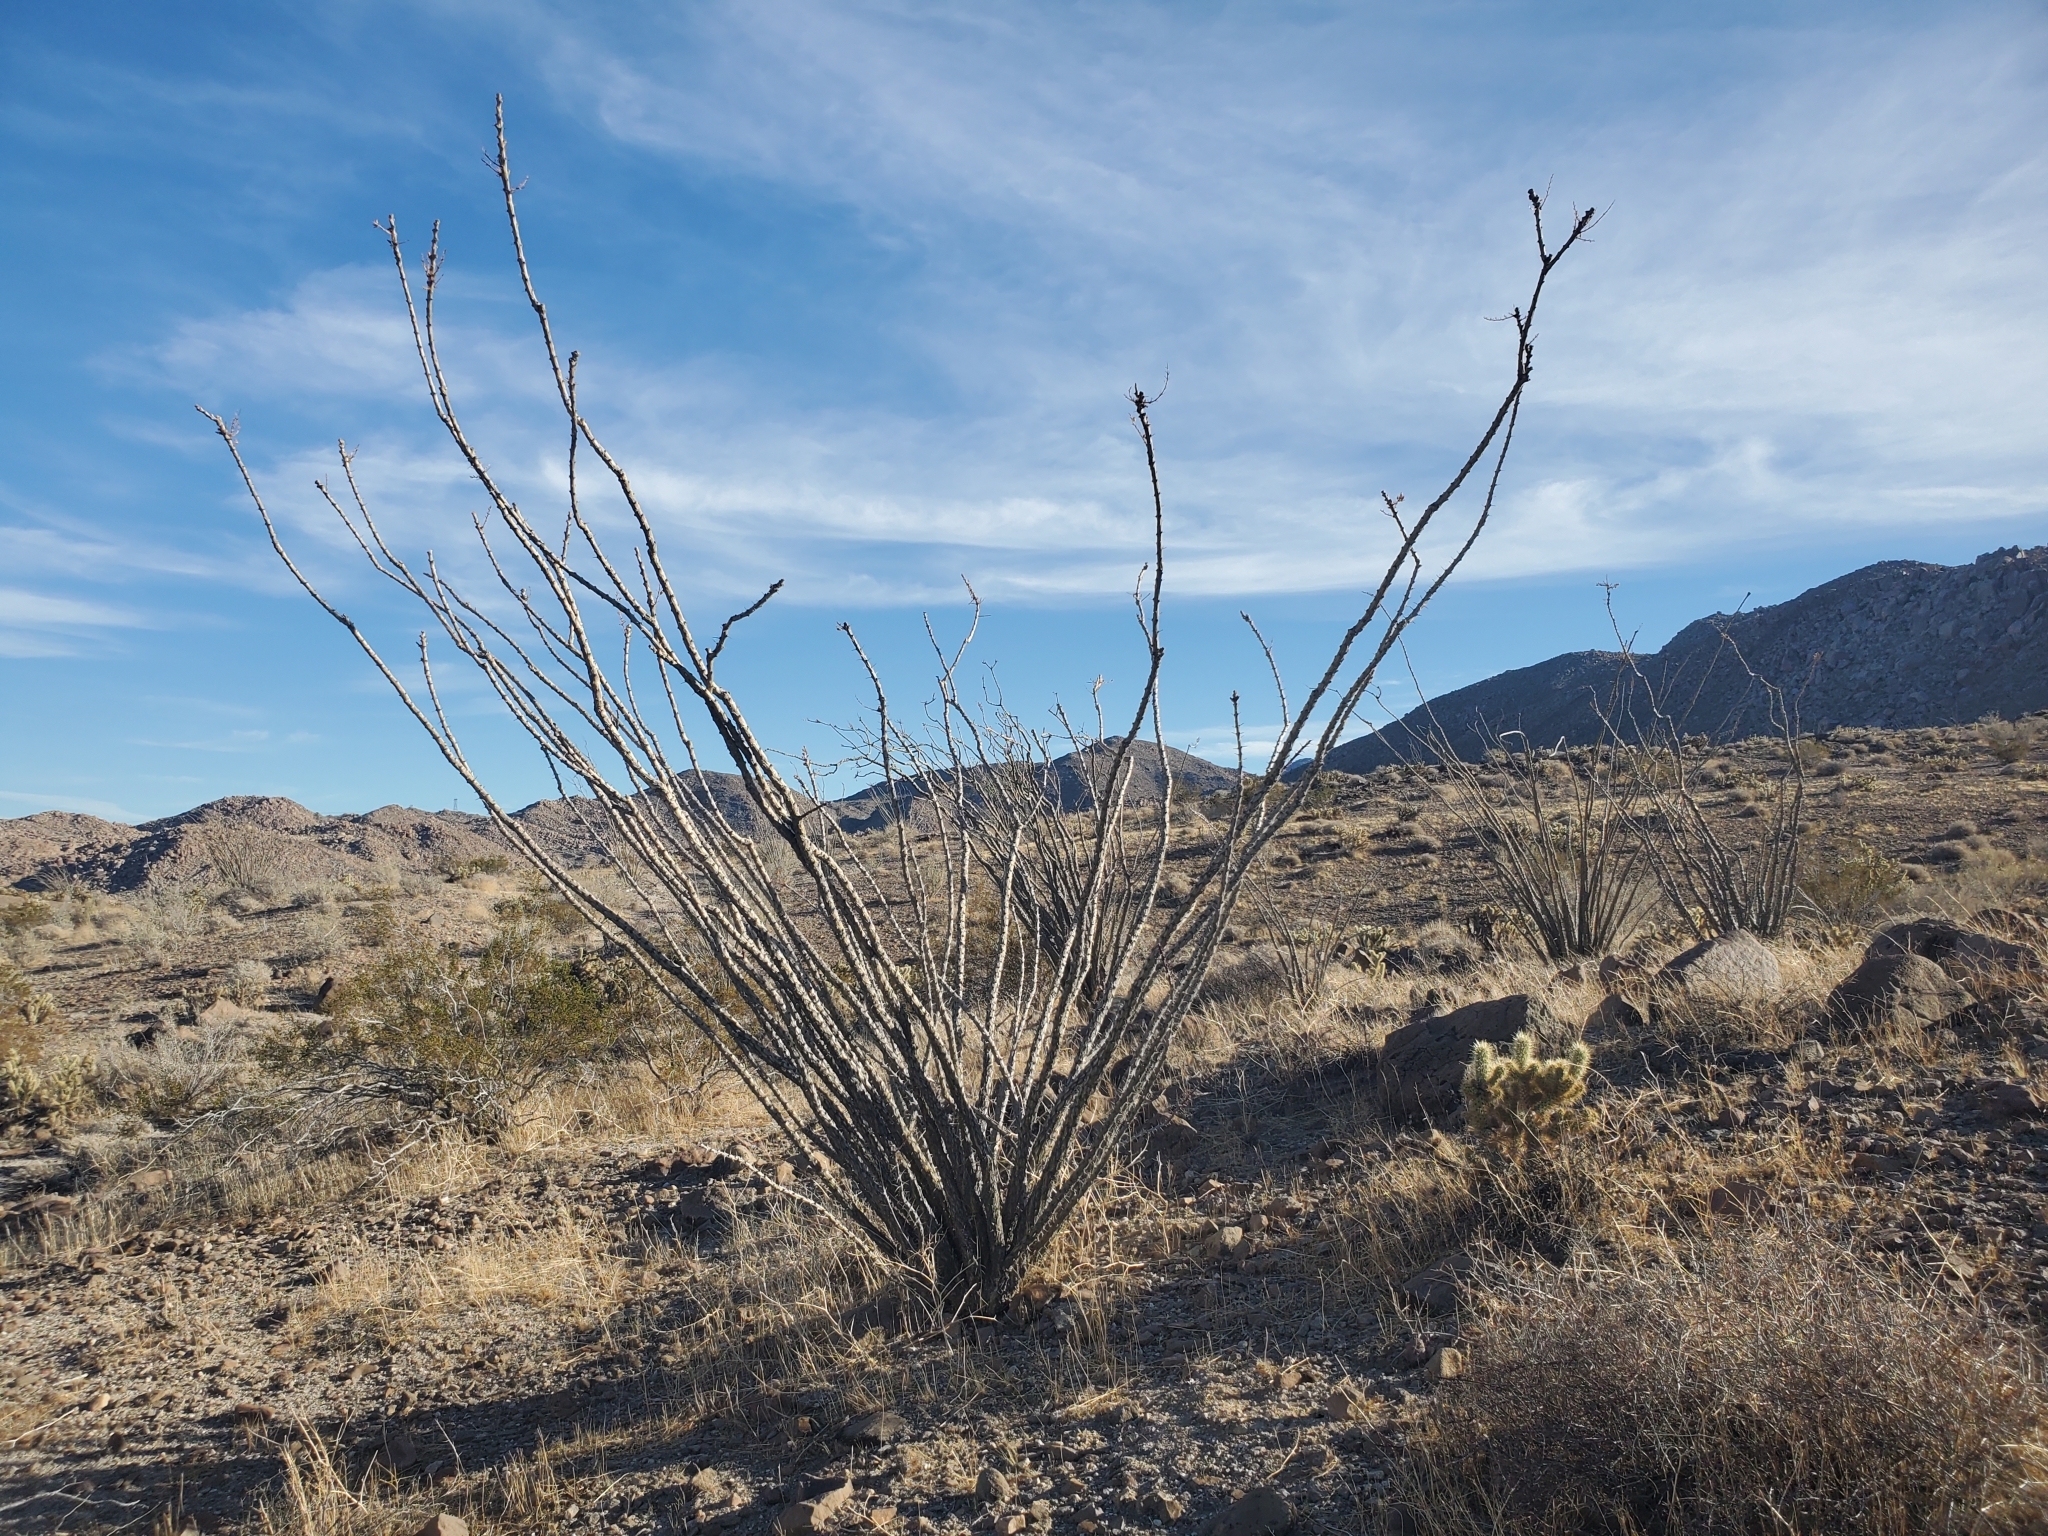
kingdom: Plantae
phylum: Tracheophyta
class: Magnoliopsida
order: Ericales
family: Fouquieriaceae
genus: Fouquieria
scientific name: Fouquieria splendens
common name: Vine-cactus
